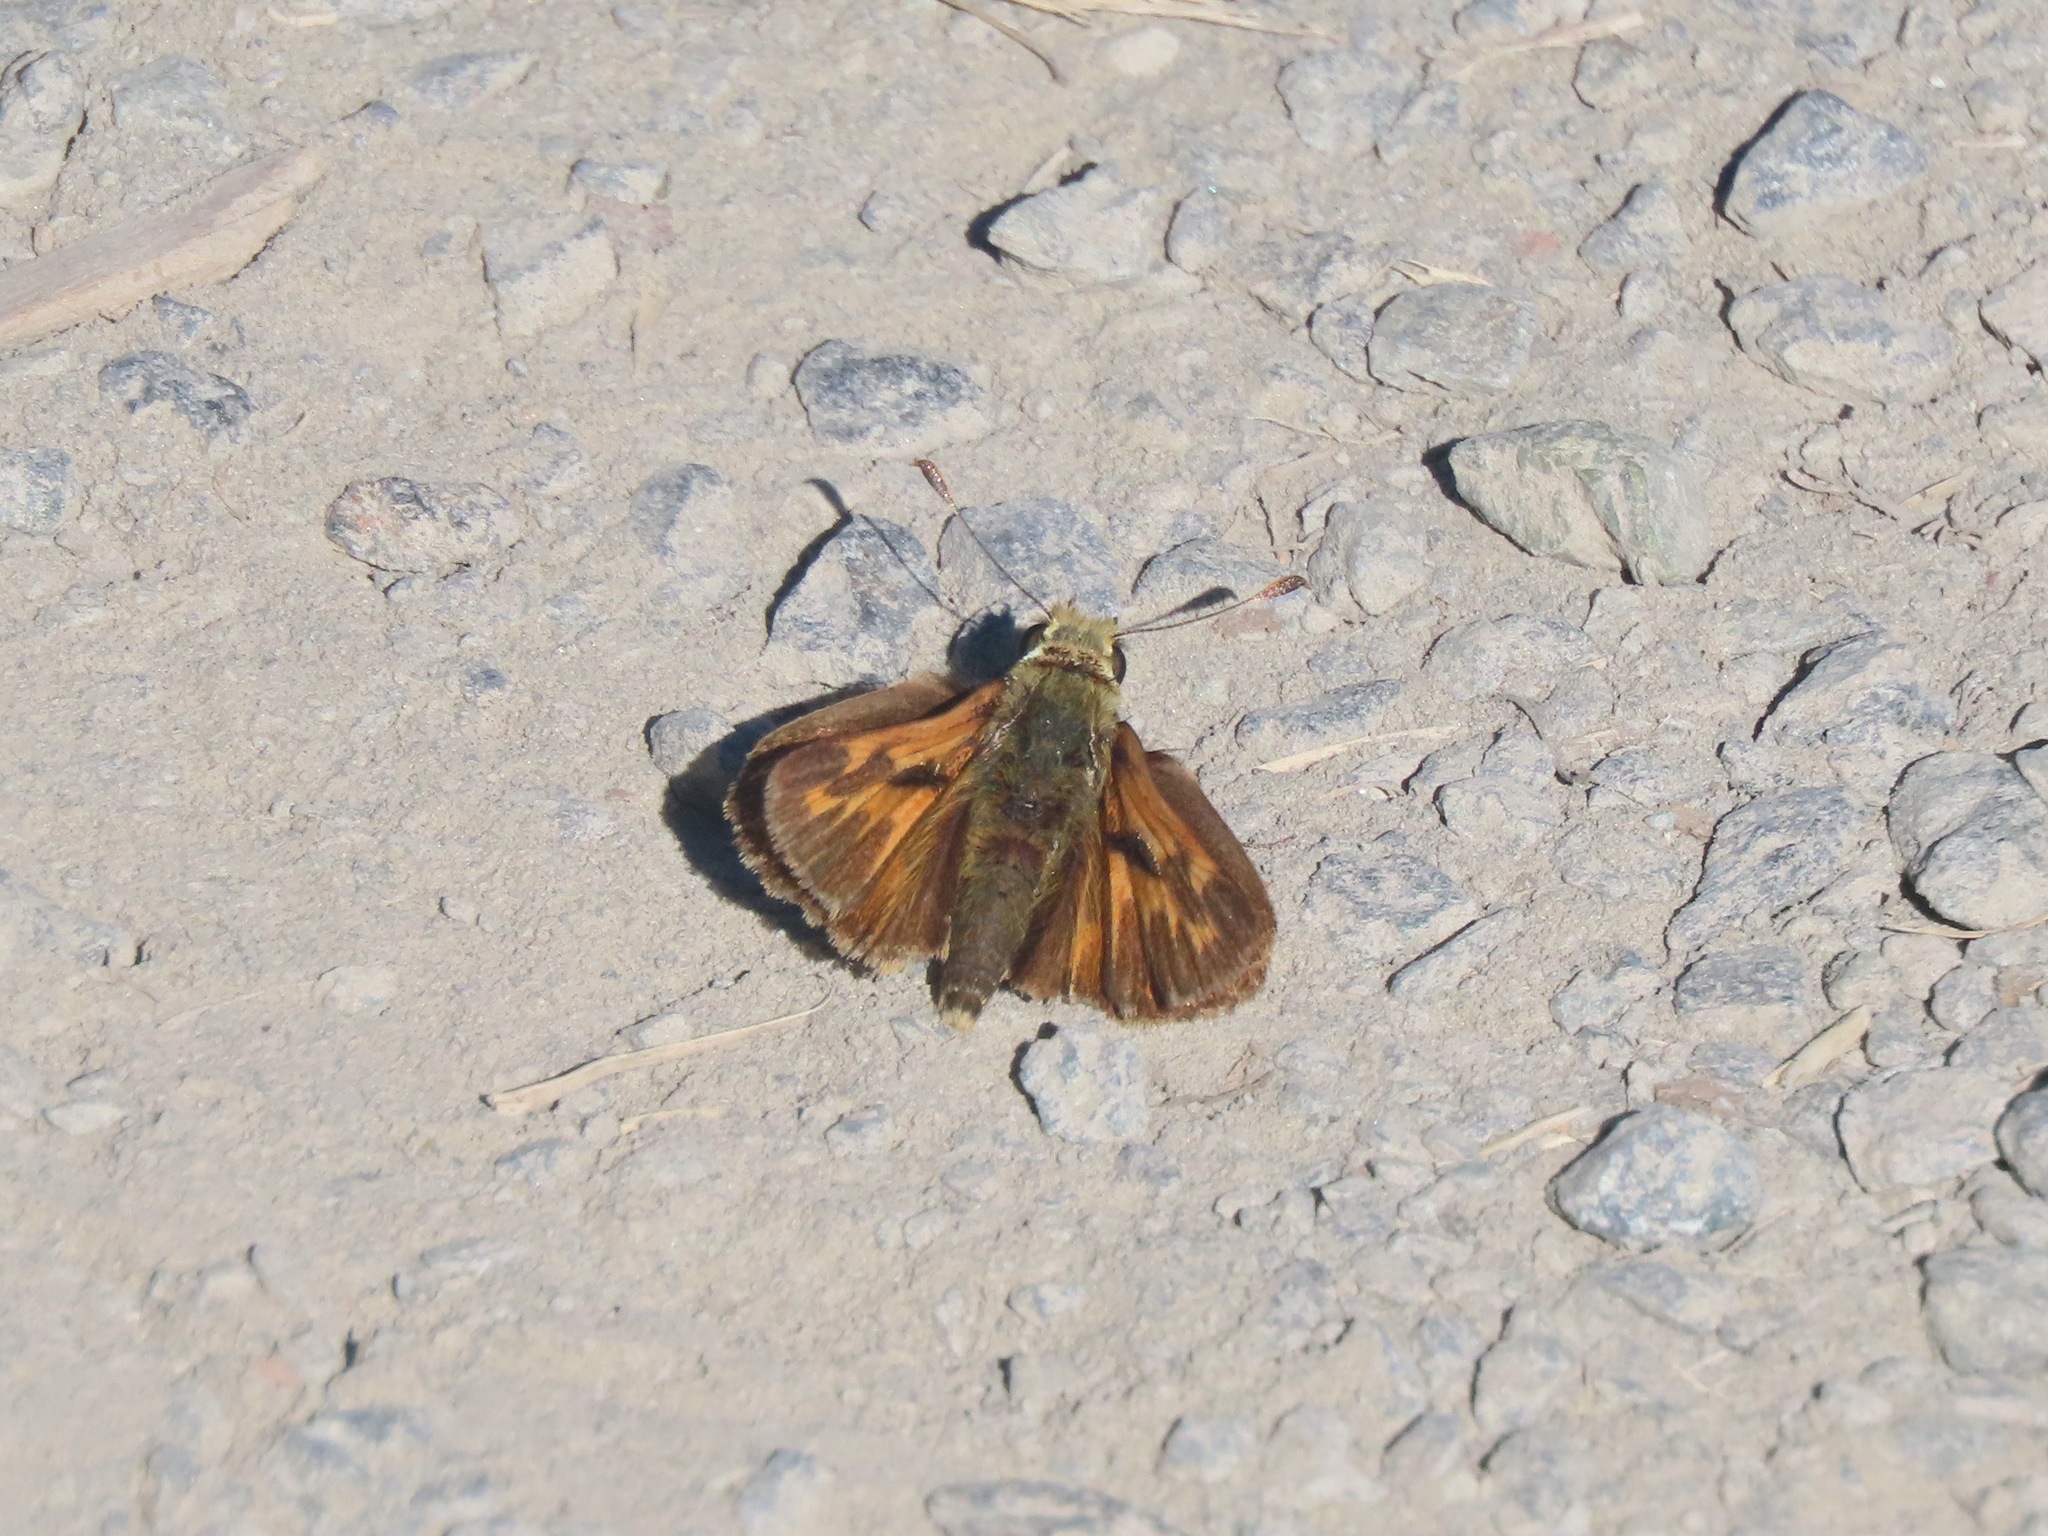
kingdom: Animalia
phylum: Arthropoda
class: Insecta
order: Lepidoptera
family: Hesperiidae
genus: Ochlodes
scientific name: Ochlodes sylvanoides
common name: Woodland skipper
